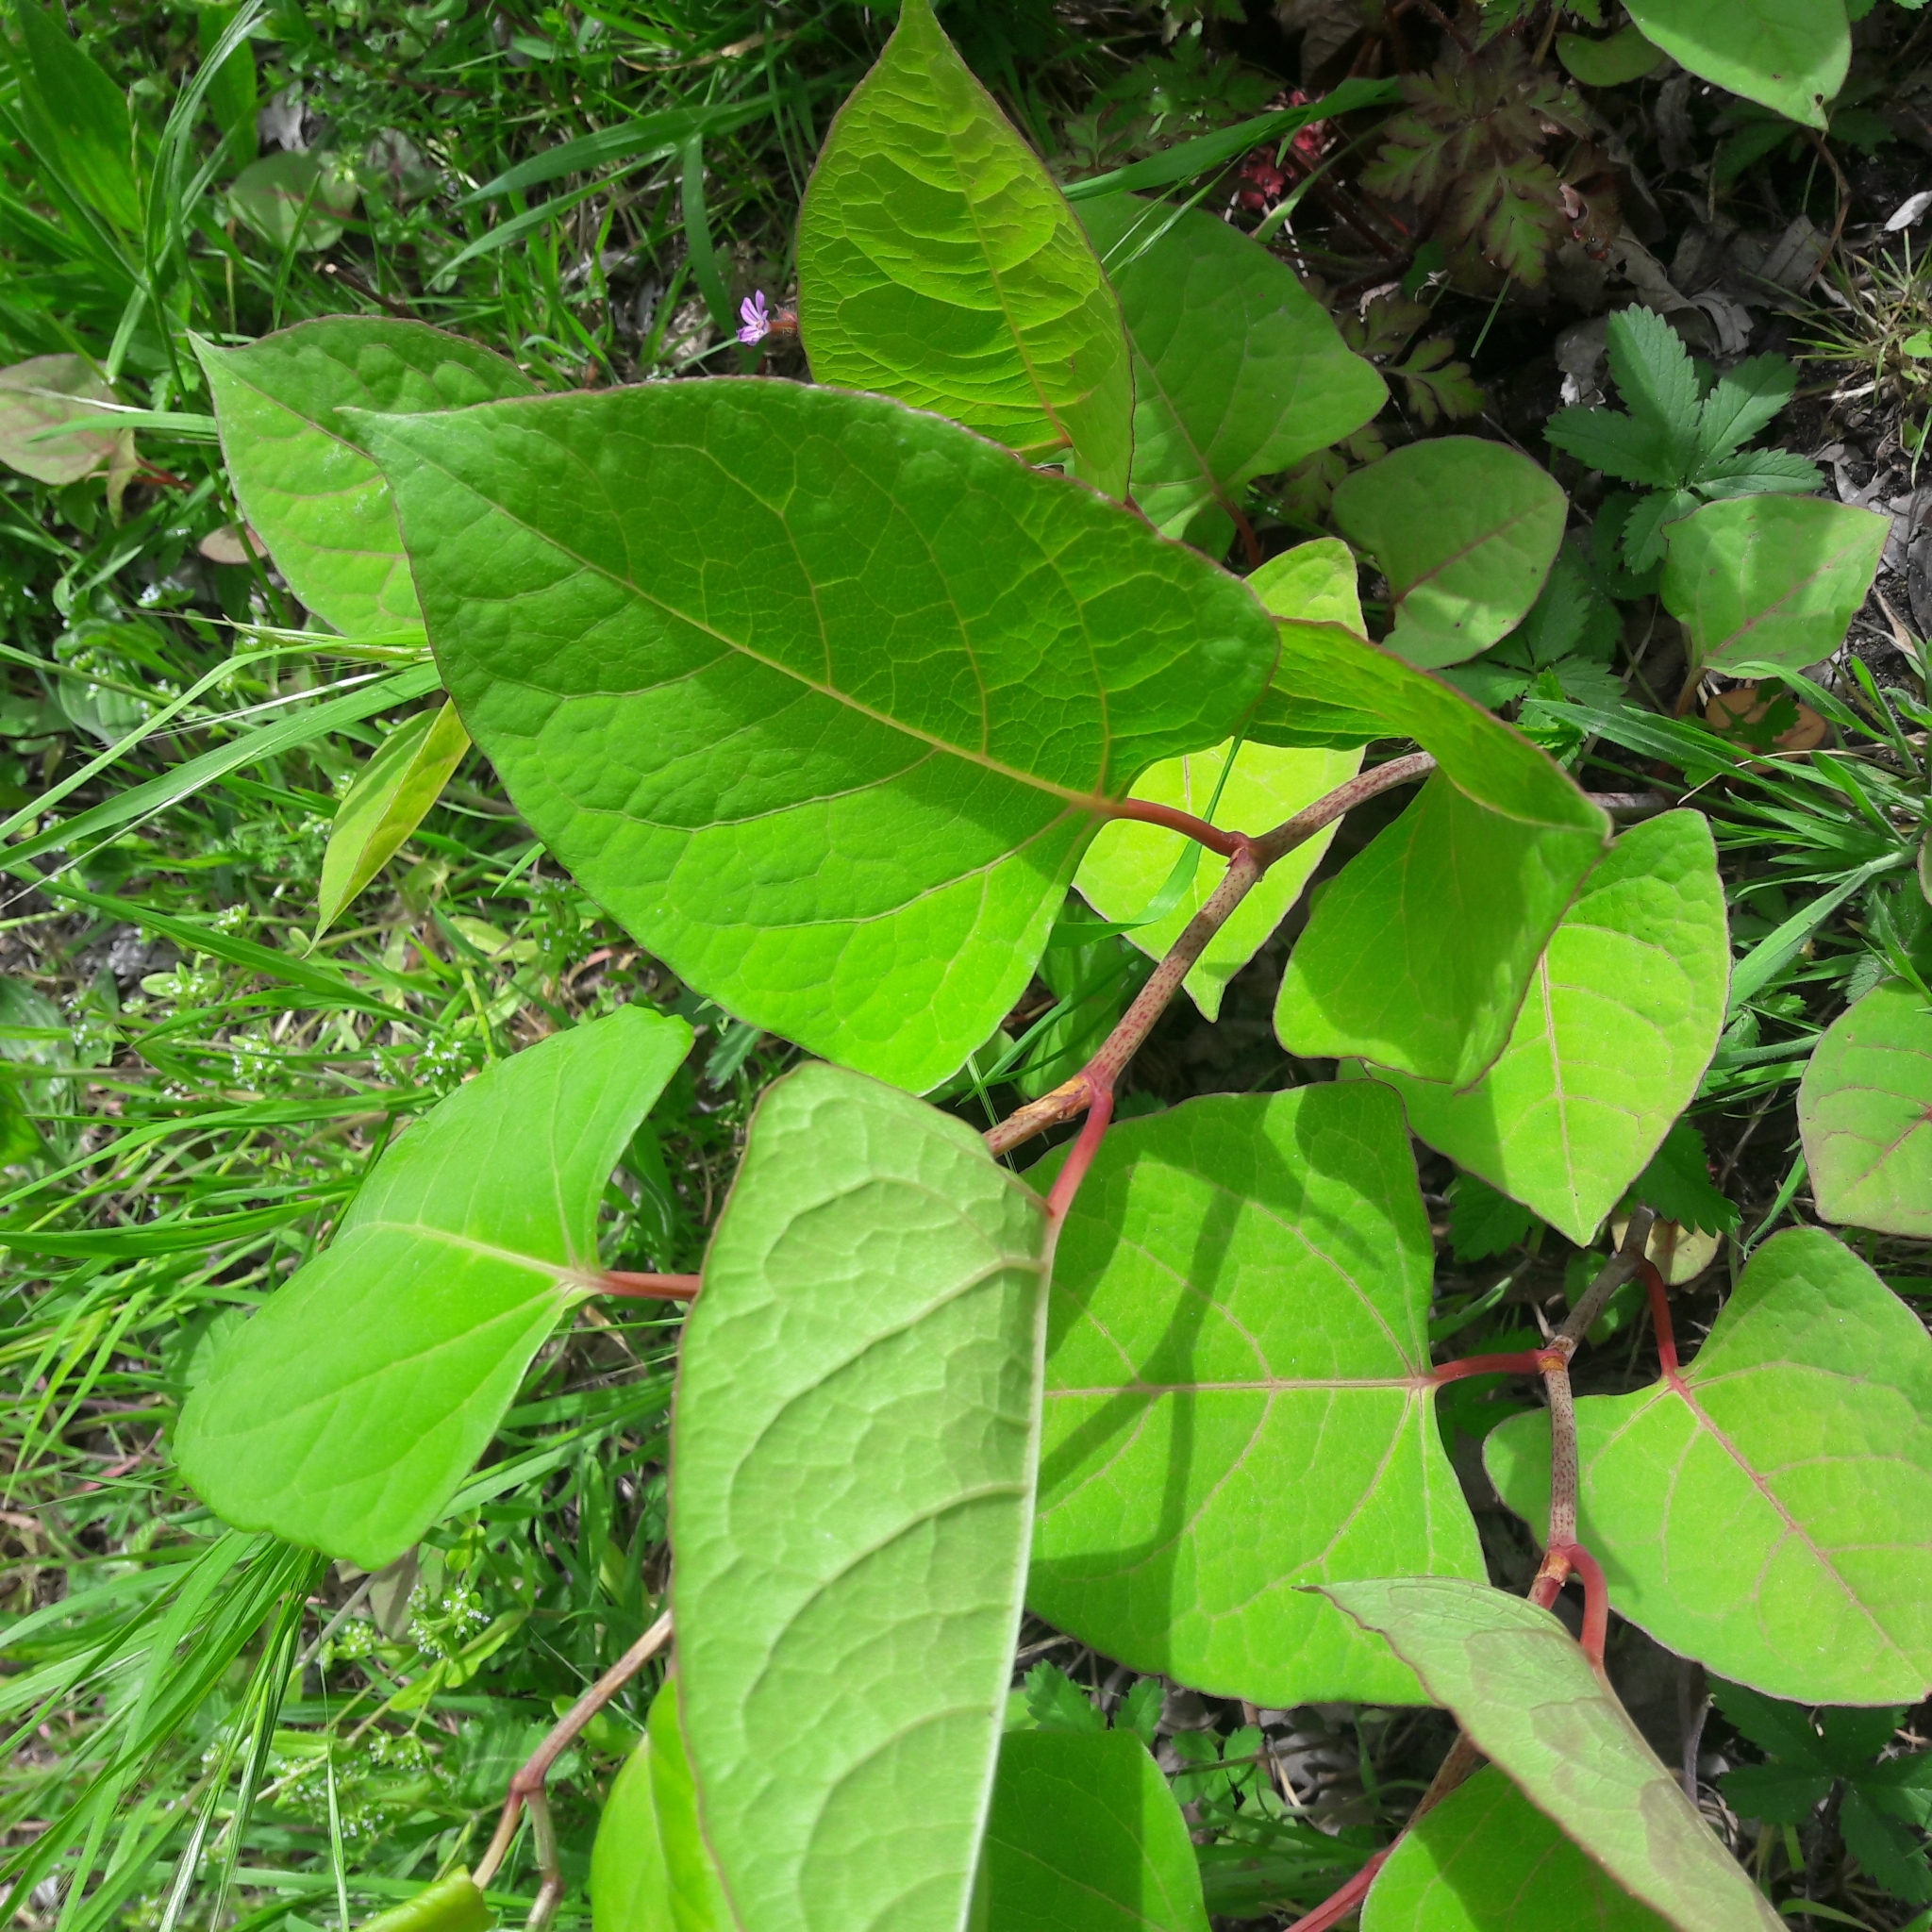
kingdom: Plantae
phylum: Tracheophyta
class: Magnoliopsida
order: Caryophyllales
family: Polygonaceae
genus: Reynoutria
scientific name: Reynoutria japonica
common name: Japanese knotweed
